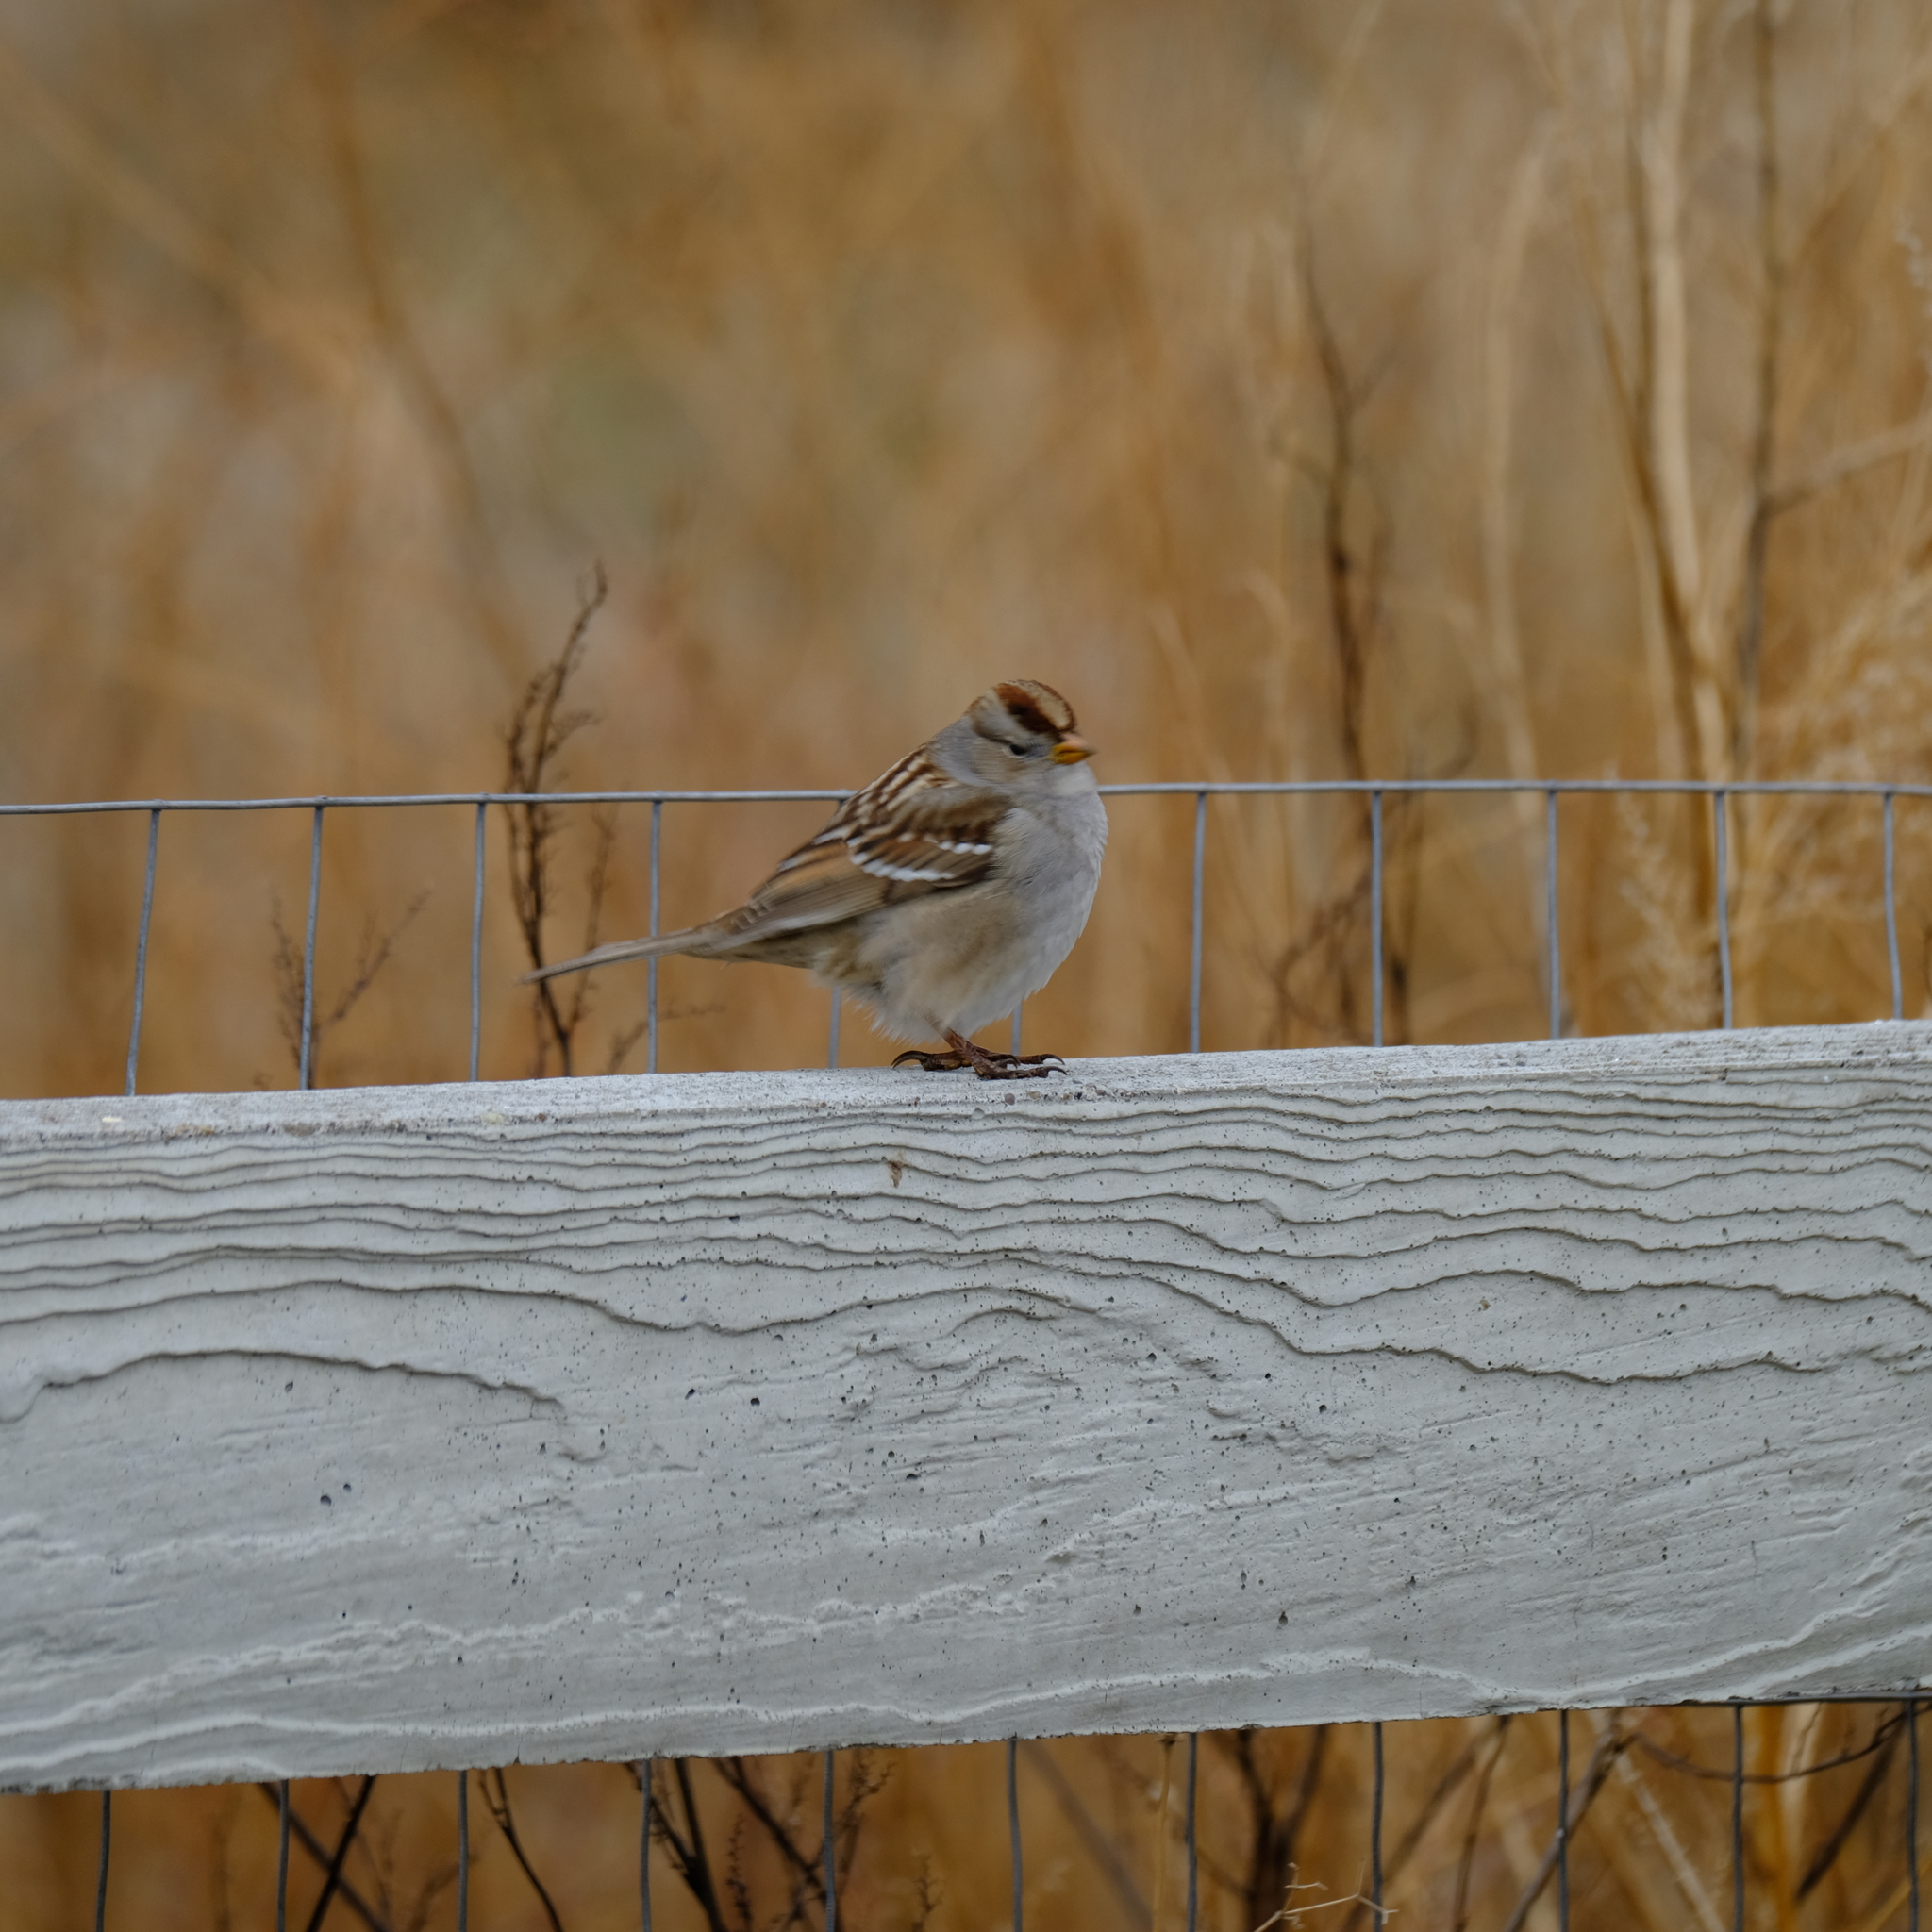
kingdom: Animalia
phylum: Chordata
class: Aves
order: Passeriformes
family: Passerellidae
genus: Zonotrichia
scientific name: Zonotrichia leucophrys
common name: White-crowned sparrow
